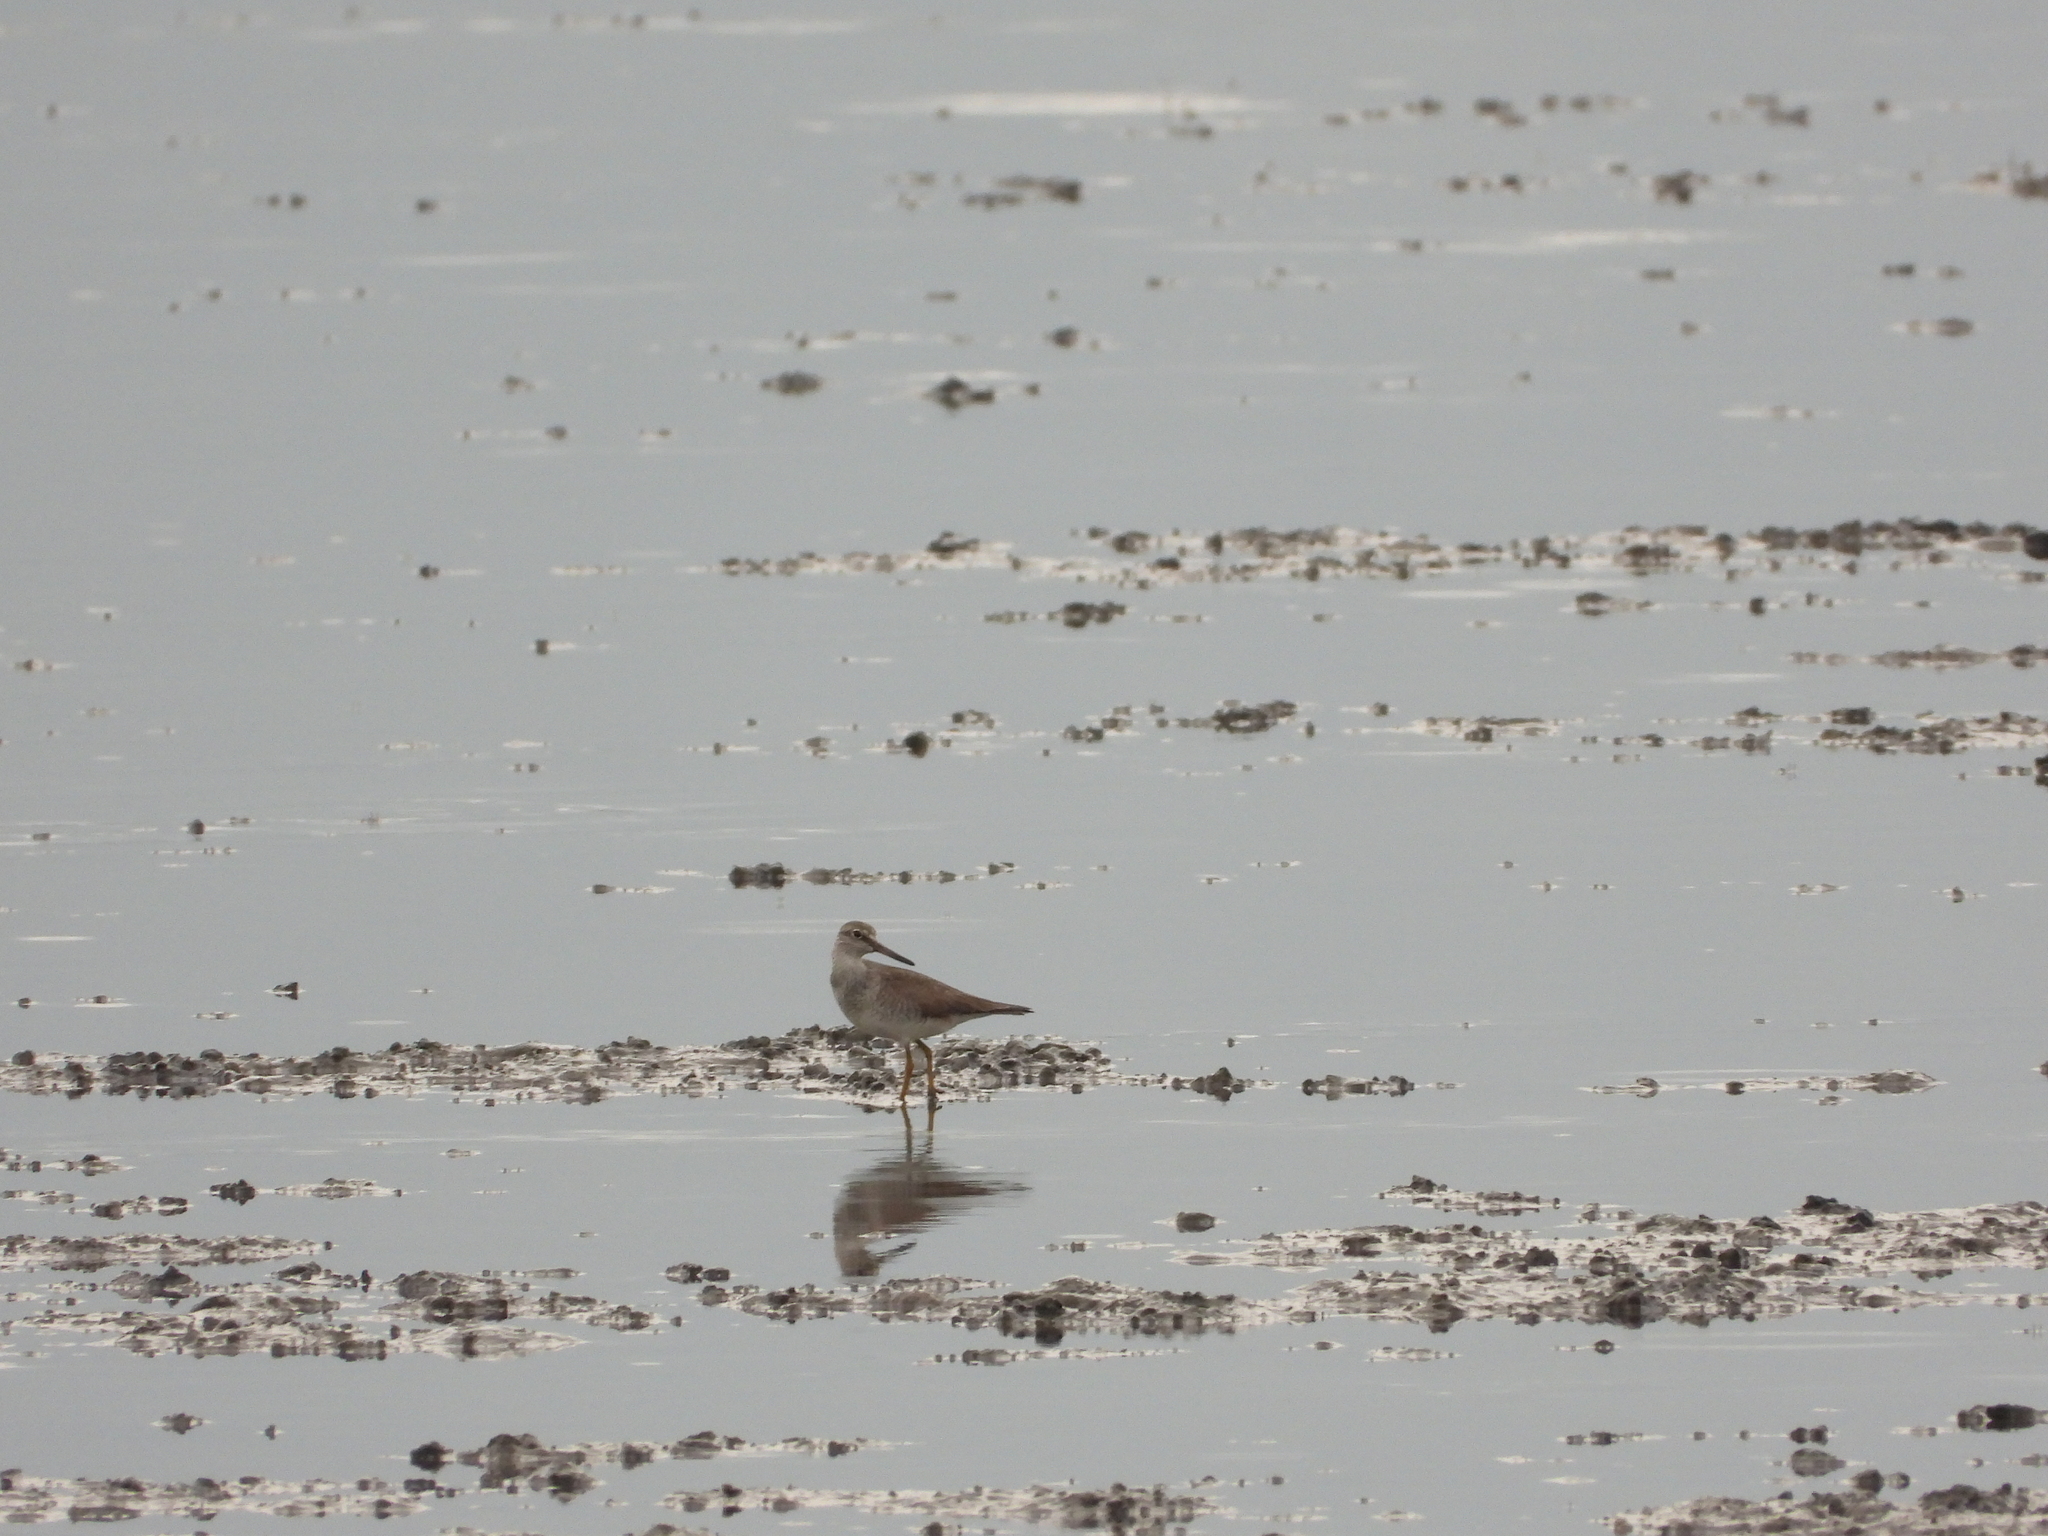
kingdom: Animalia
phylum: Chordata
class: Aves
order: Charadriiformes
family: Scolopacidae
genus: Tringa
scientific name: Tringa brevipes
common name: Grey-tailed tattler
